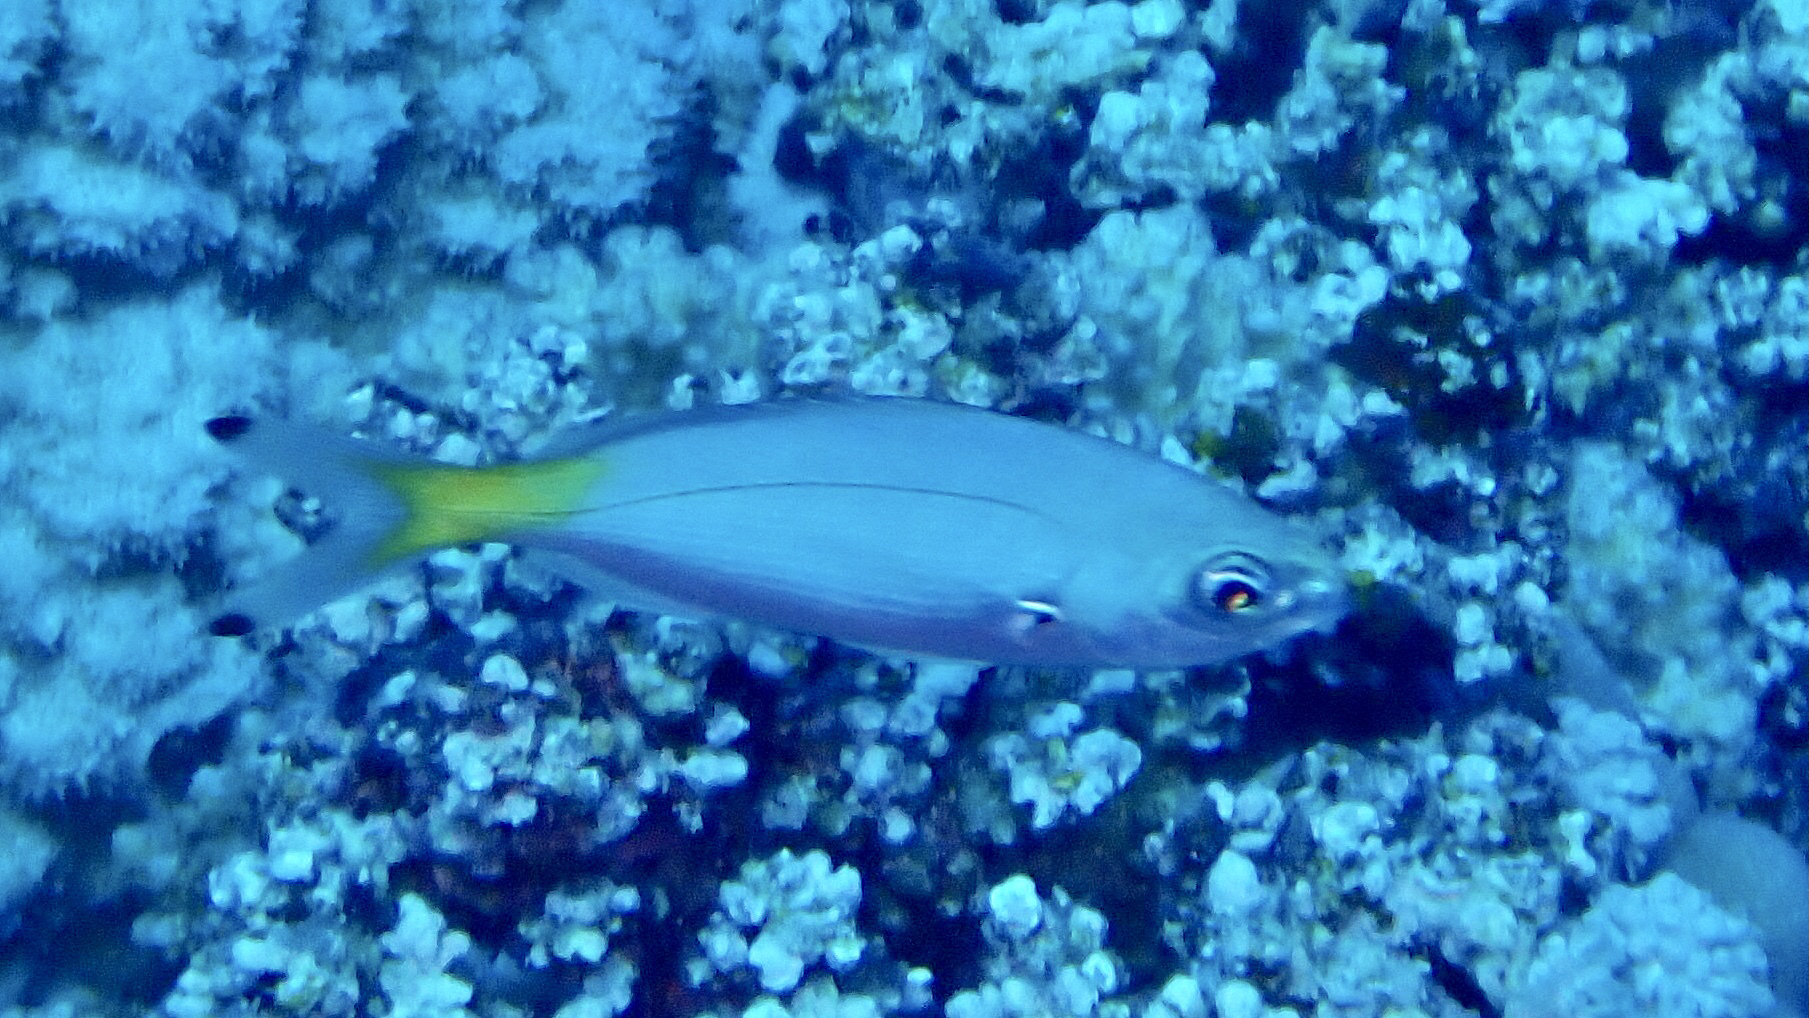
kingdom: Animalia
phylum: Chordata
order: Perciformes
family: Caesionidae
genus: Caesio
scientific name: Caesio lunaris
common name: Blue fusilier
